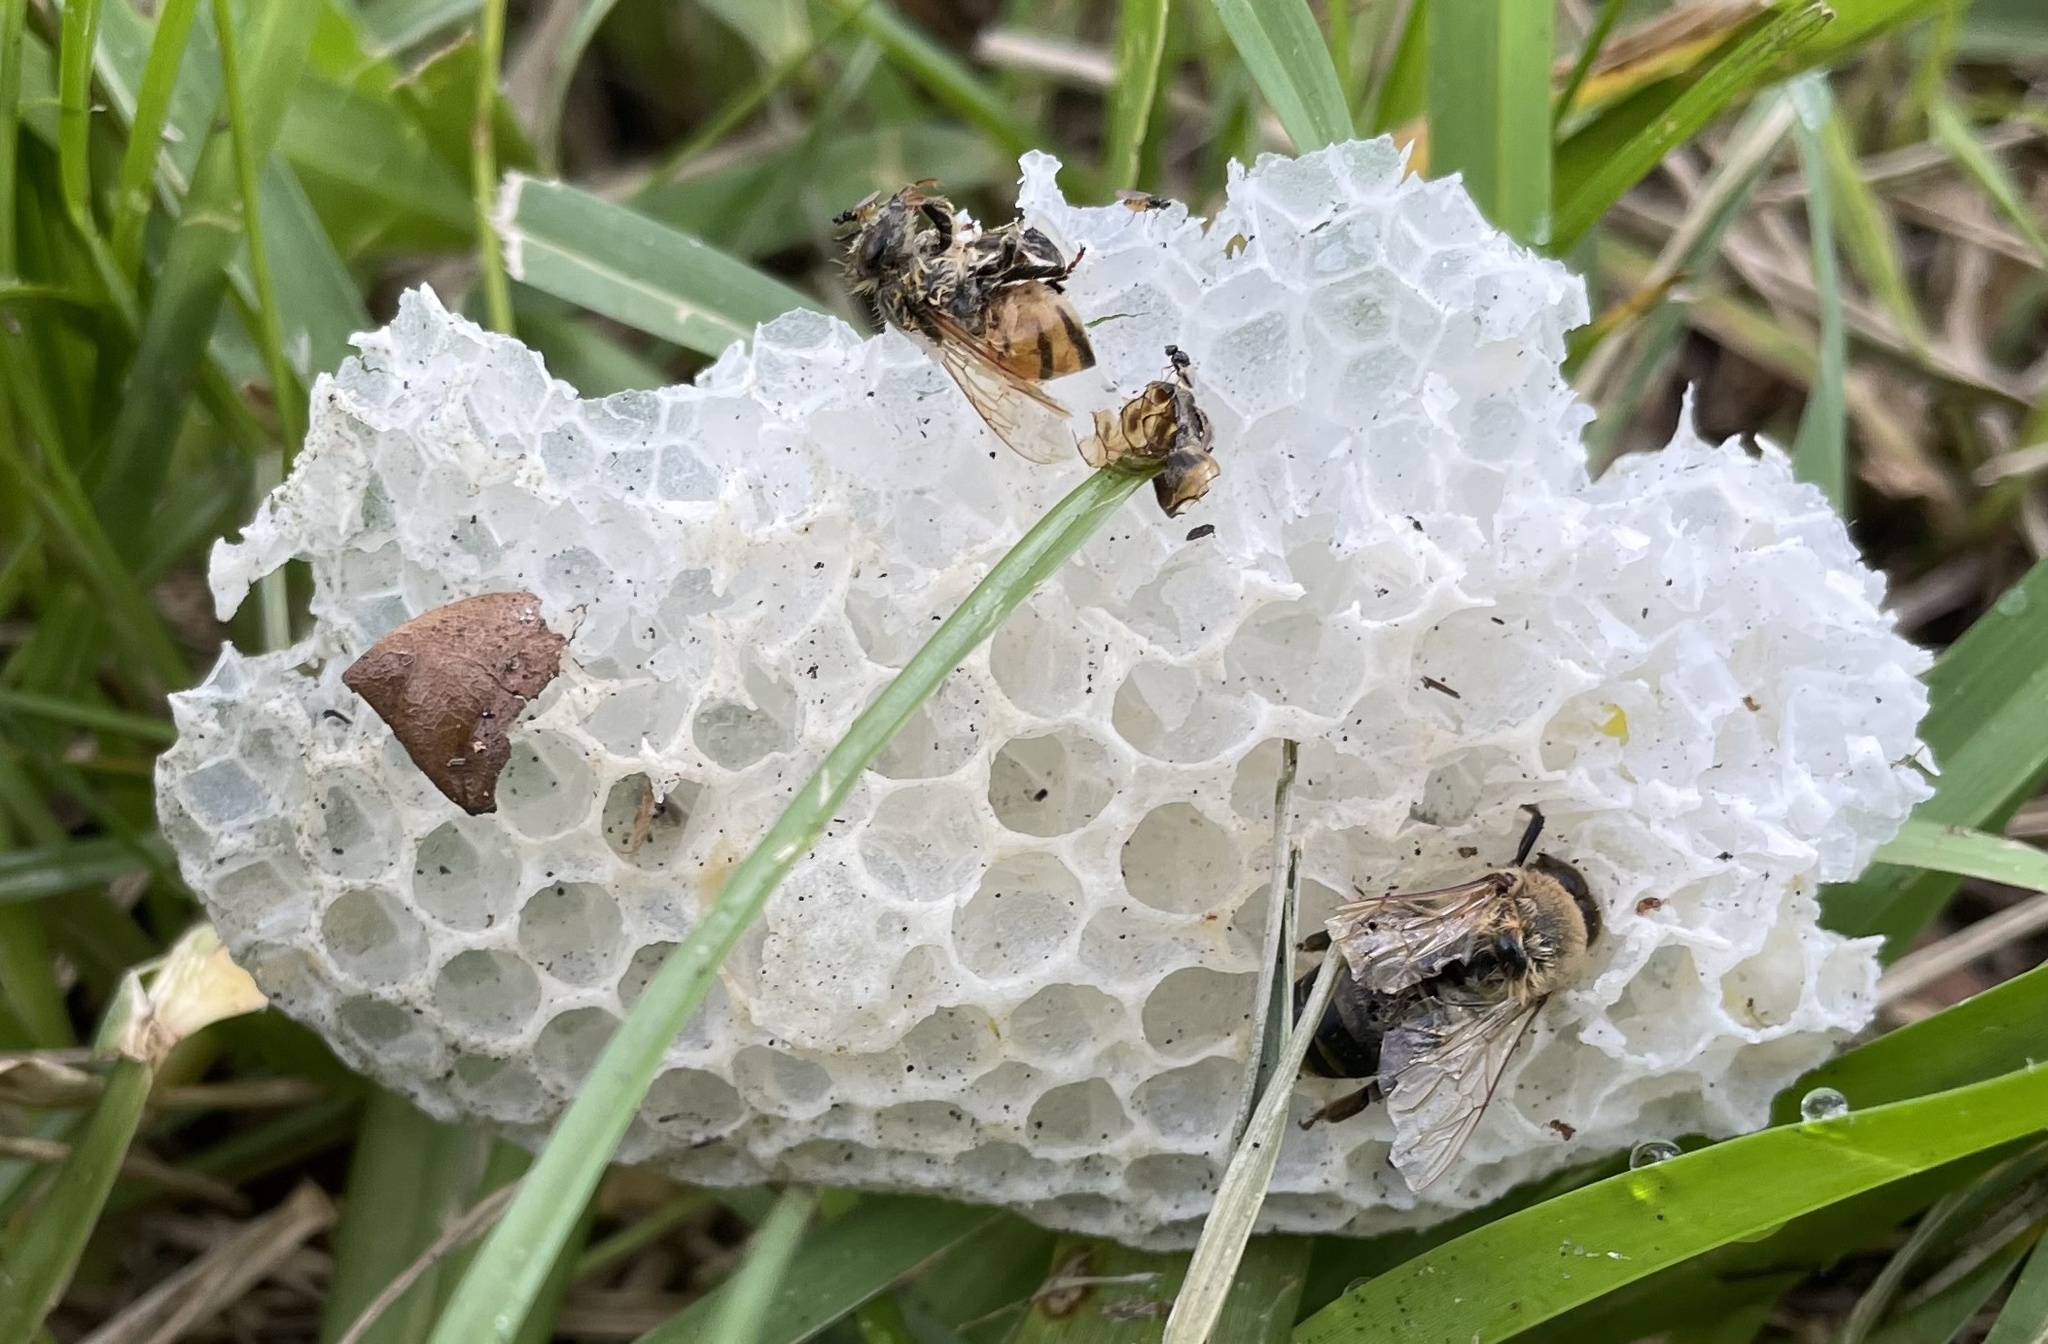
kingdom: Animalia
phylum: Arthropoda
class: Insecta
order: Hymenoptera
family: Apidae
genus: Apis
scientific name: Apis mellifera
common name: Honey bee
